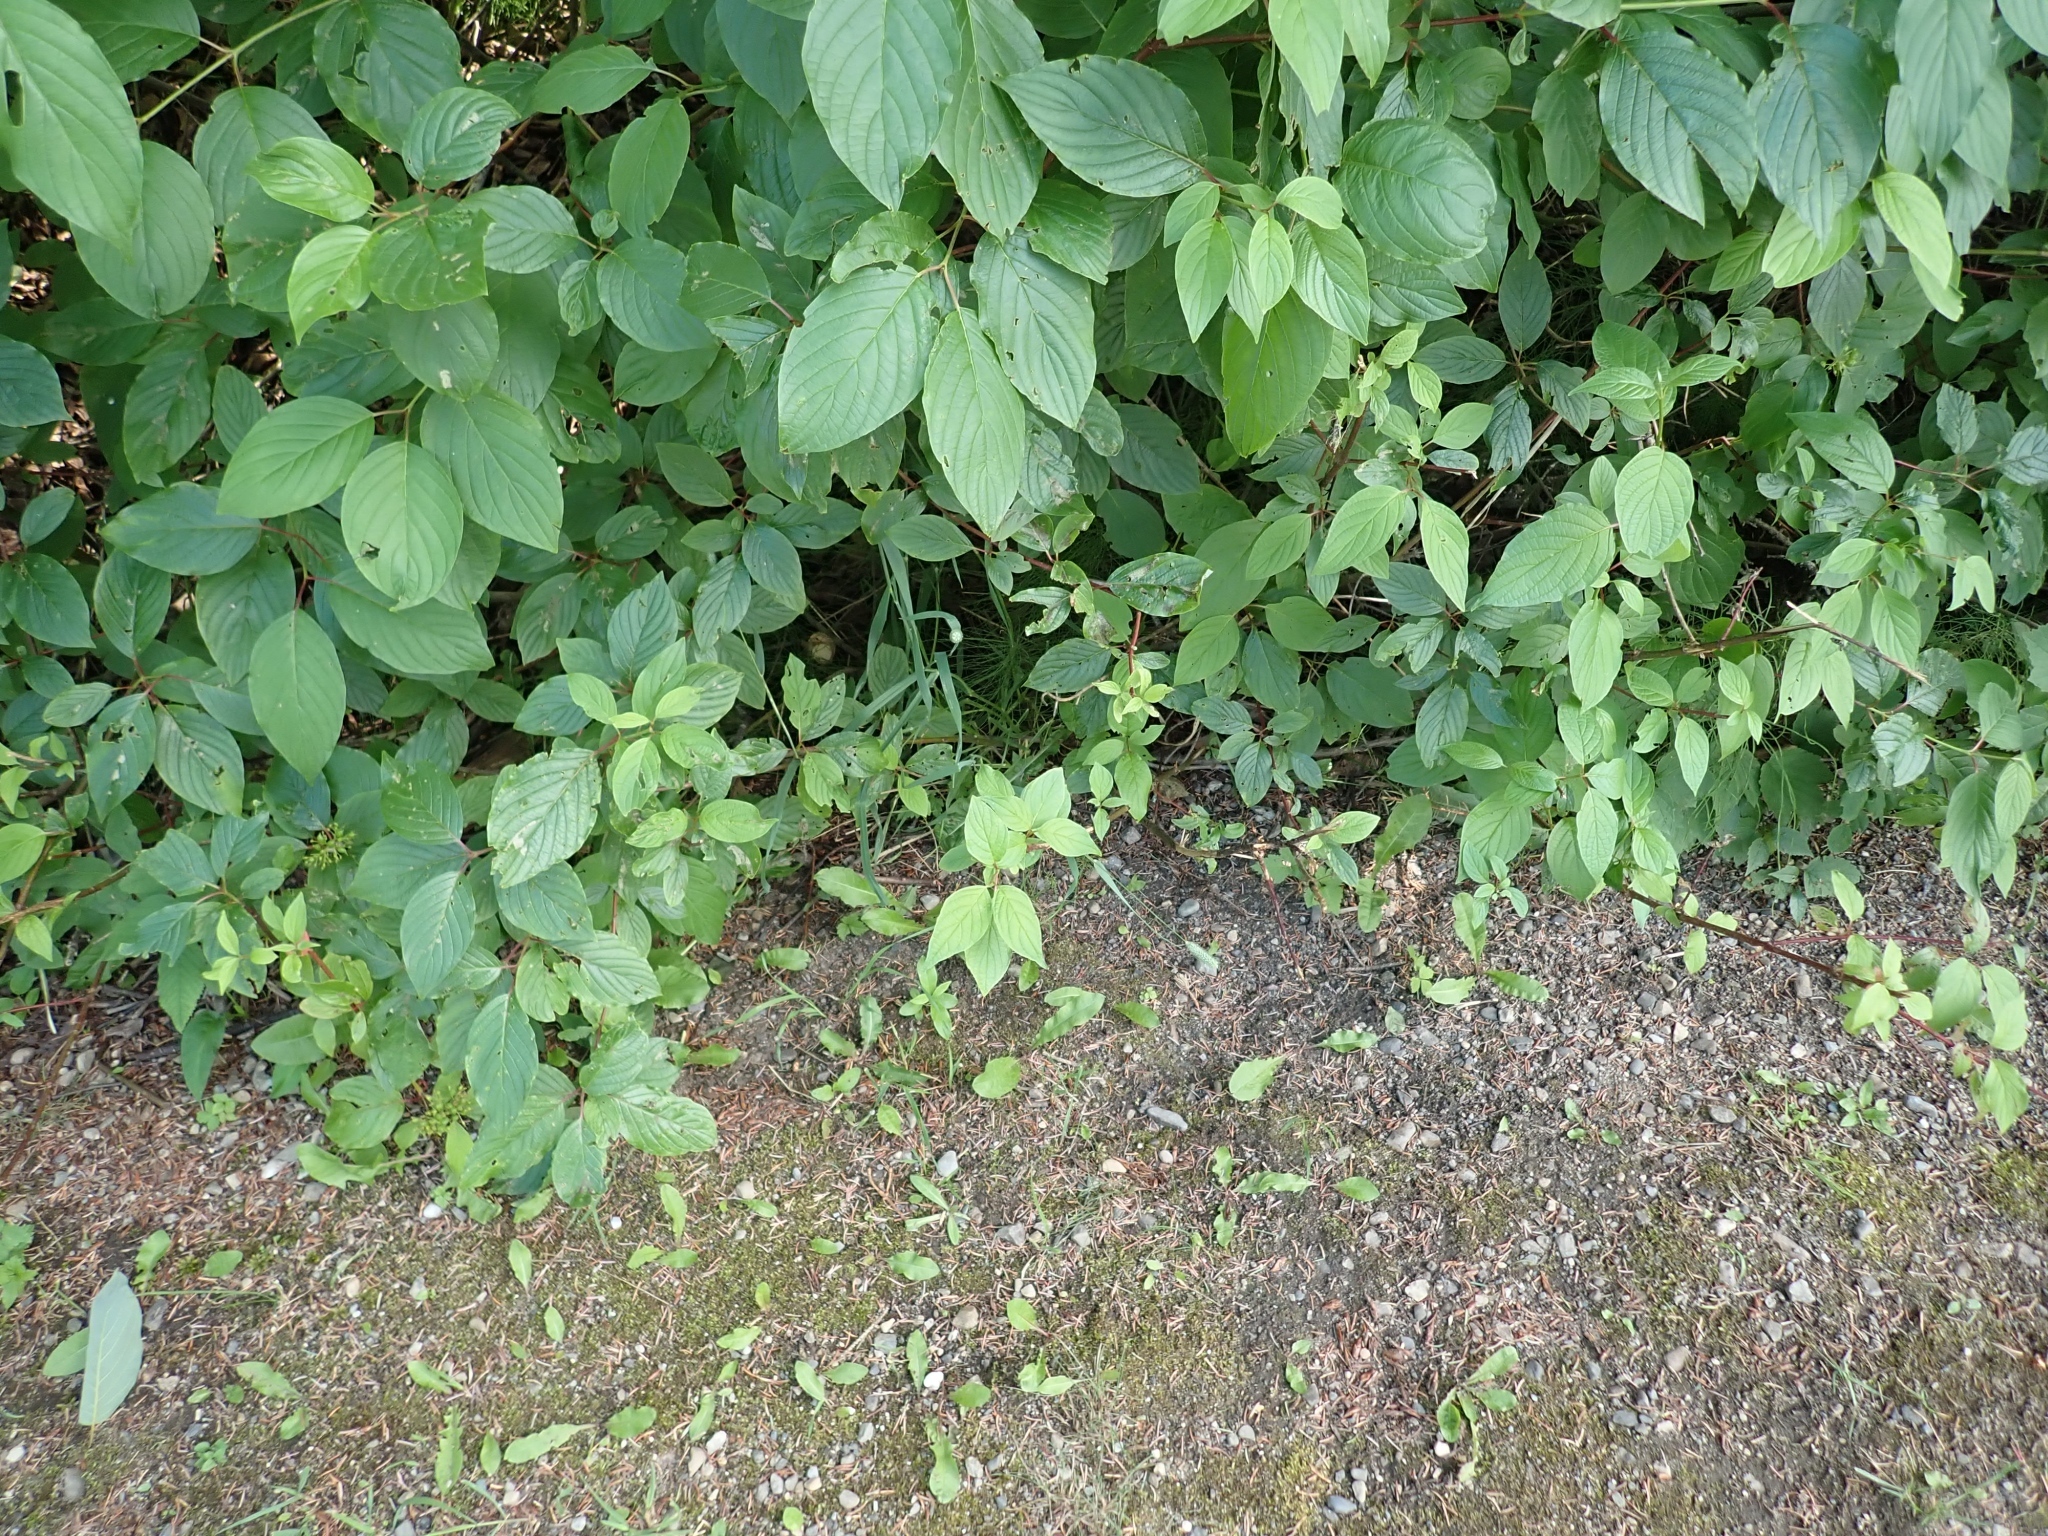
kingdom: Plantae
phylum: Tracheophyta
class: Liliopsida
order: Poales
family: Poaceae
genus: Phleum
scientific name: Phleum pratense
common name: Timothy grass
